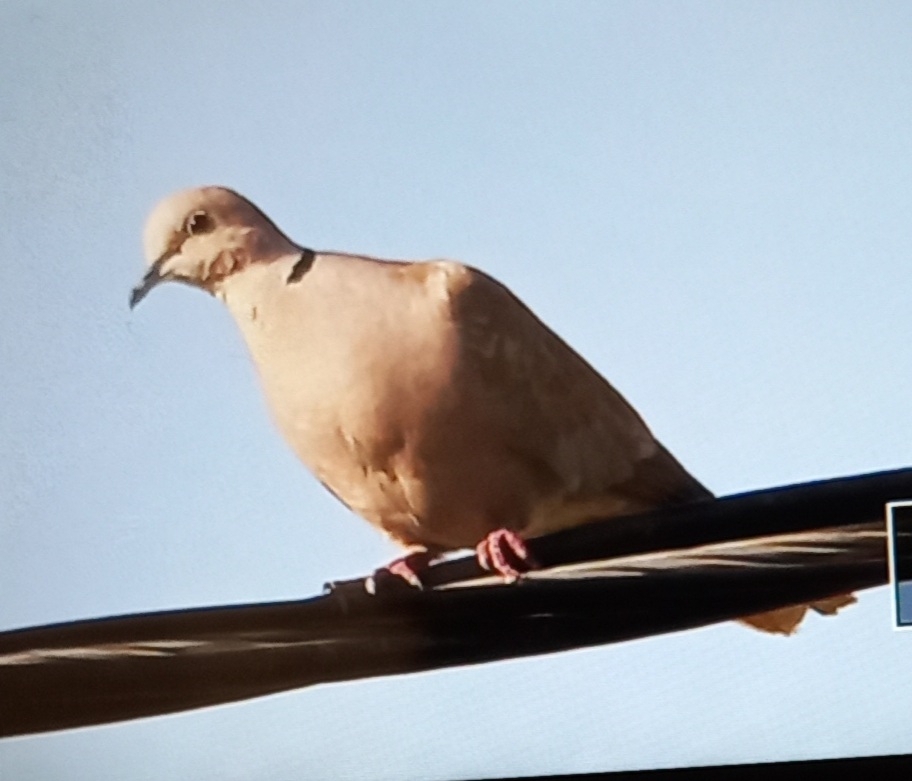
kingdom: Animalia
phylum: Chordata
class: Aves
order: Columbiformes
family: Columbidae
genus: Streptopelia
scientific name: Streptopelia decaocto
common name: Eurasian collared dove
